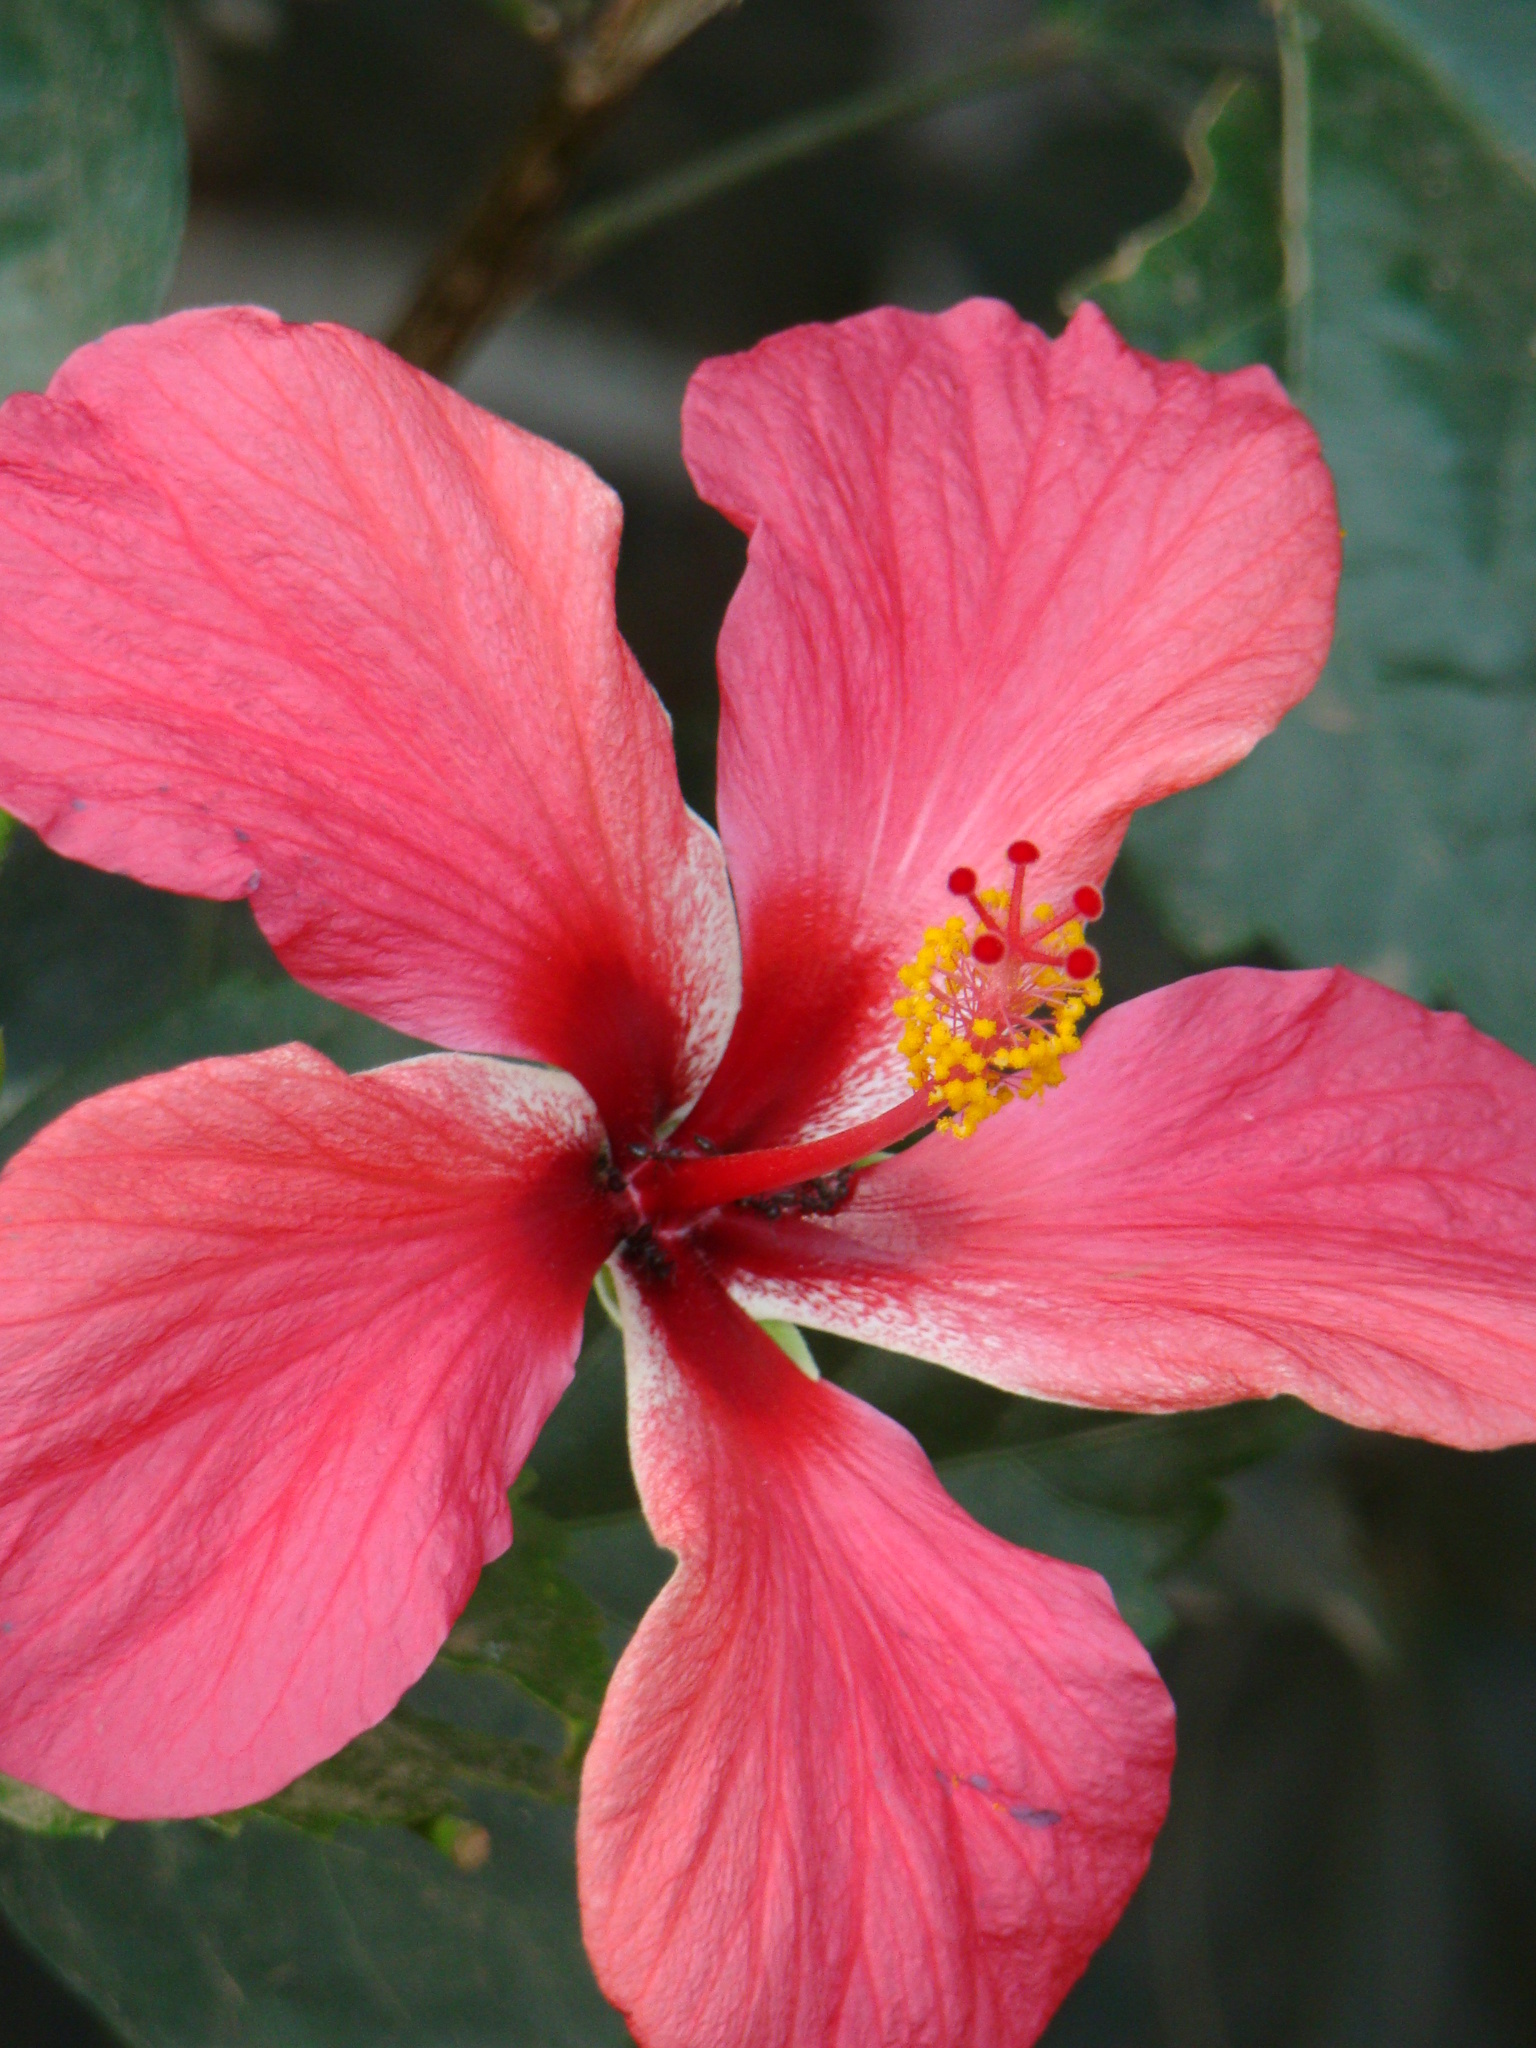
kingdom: Plantae
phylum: Tracheophyta
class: Magnoliopsida
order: Malvales
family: Malvaceae
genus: Hibiscus
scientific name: Hibiscus rosa-sinensis
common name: Hibiscus
